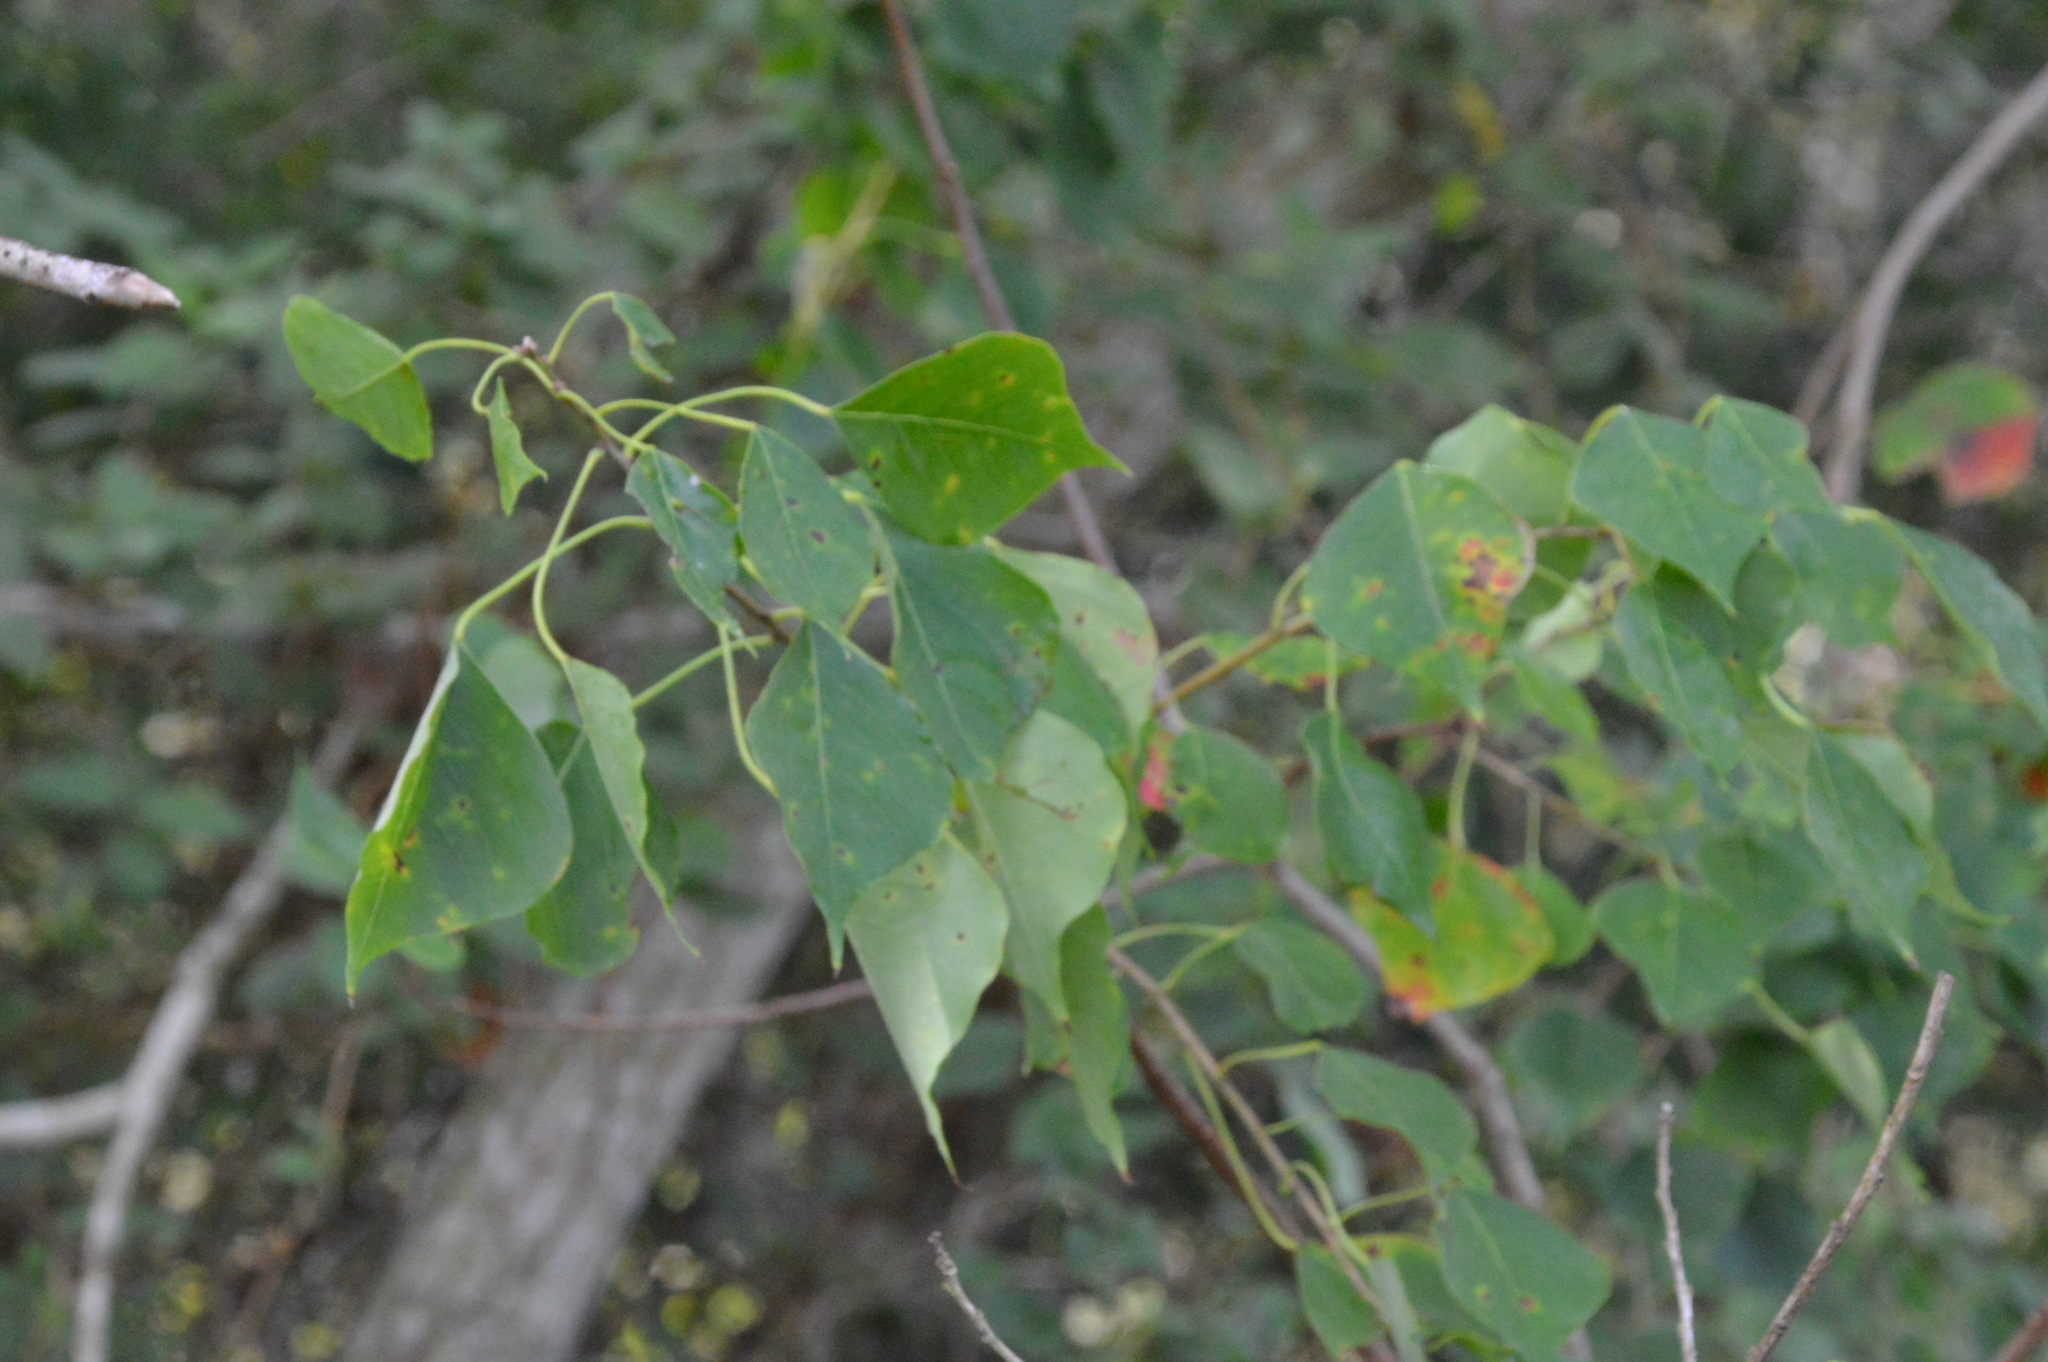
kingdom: Plantae
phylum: Tracheophyta
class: Magnoliopsida
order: Malpighiales
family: Euphorbiaceae
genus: Triadica
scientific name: Triadica sebifera
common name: Chinese tallow
